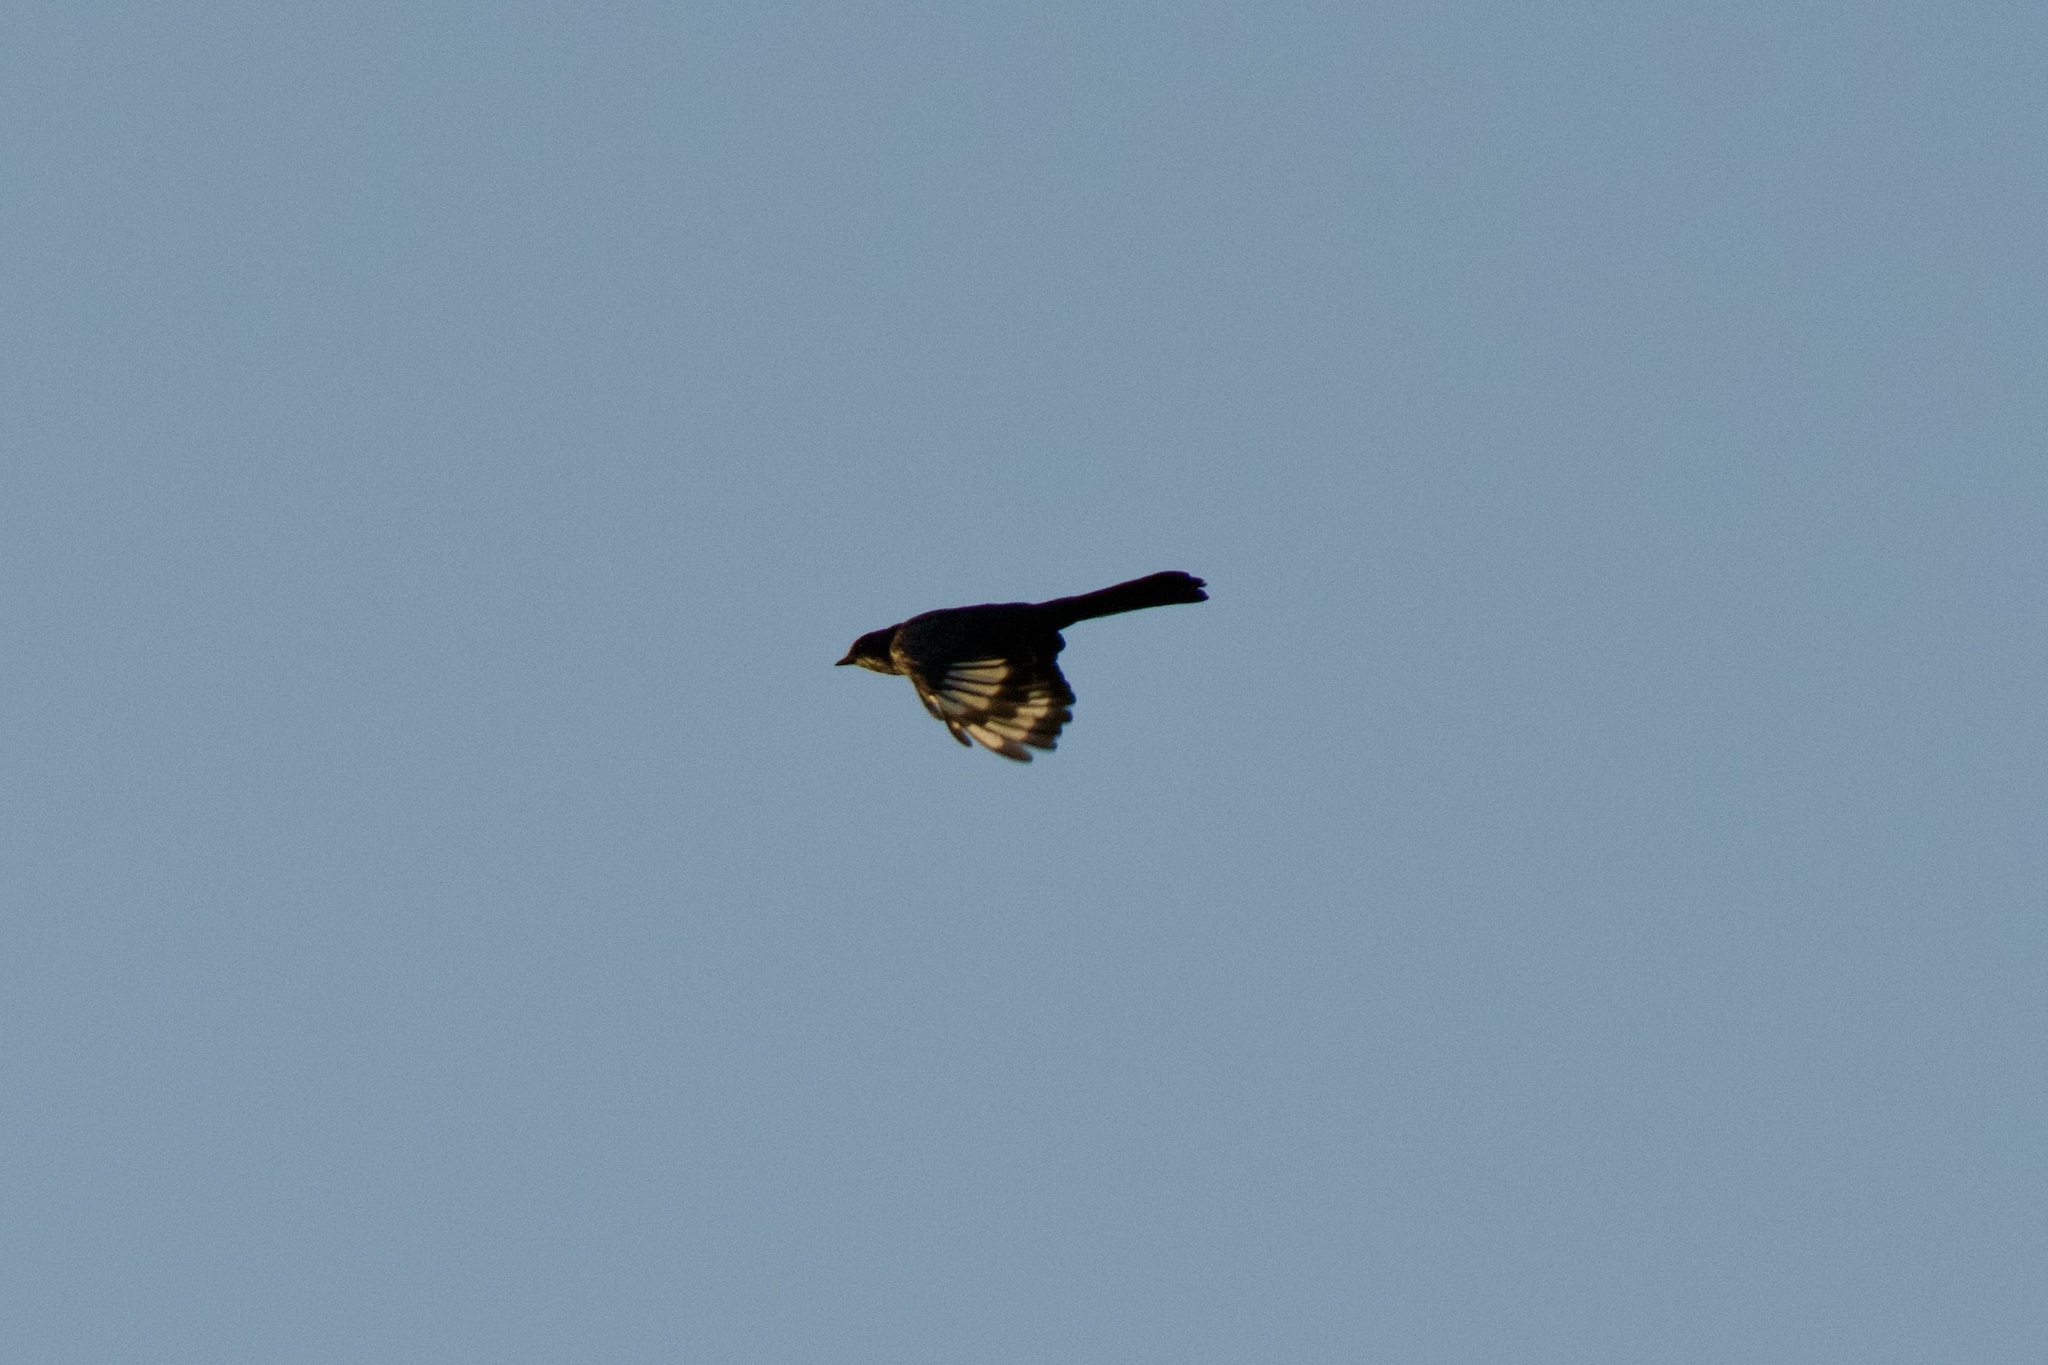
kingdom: Animalia
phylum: Chordata
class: Aves
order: Passeriformes
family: Ptilogonatidae
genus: Phainopepla
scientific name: Phainopepla nitens
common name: Phainopepla
